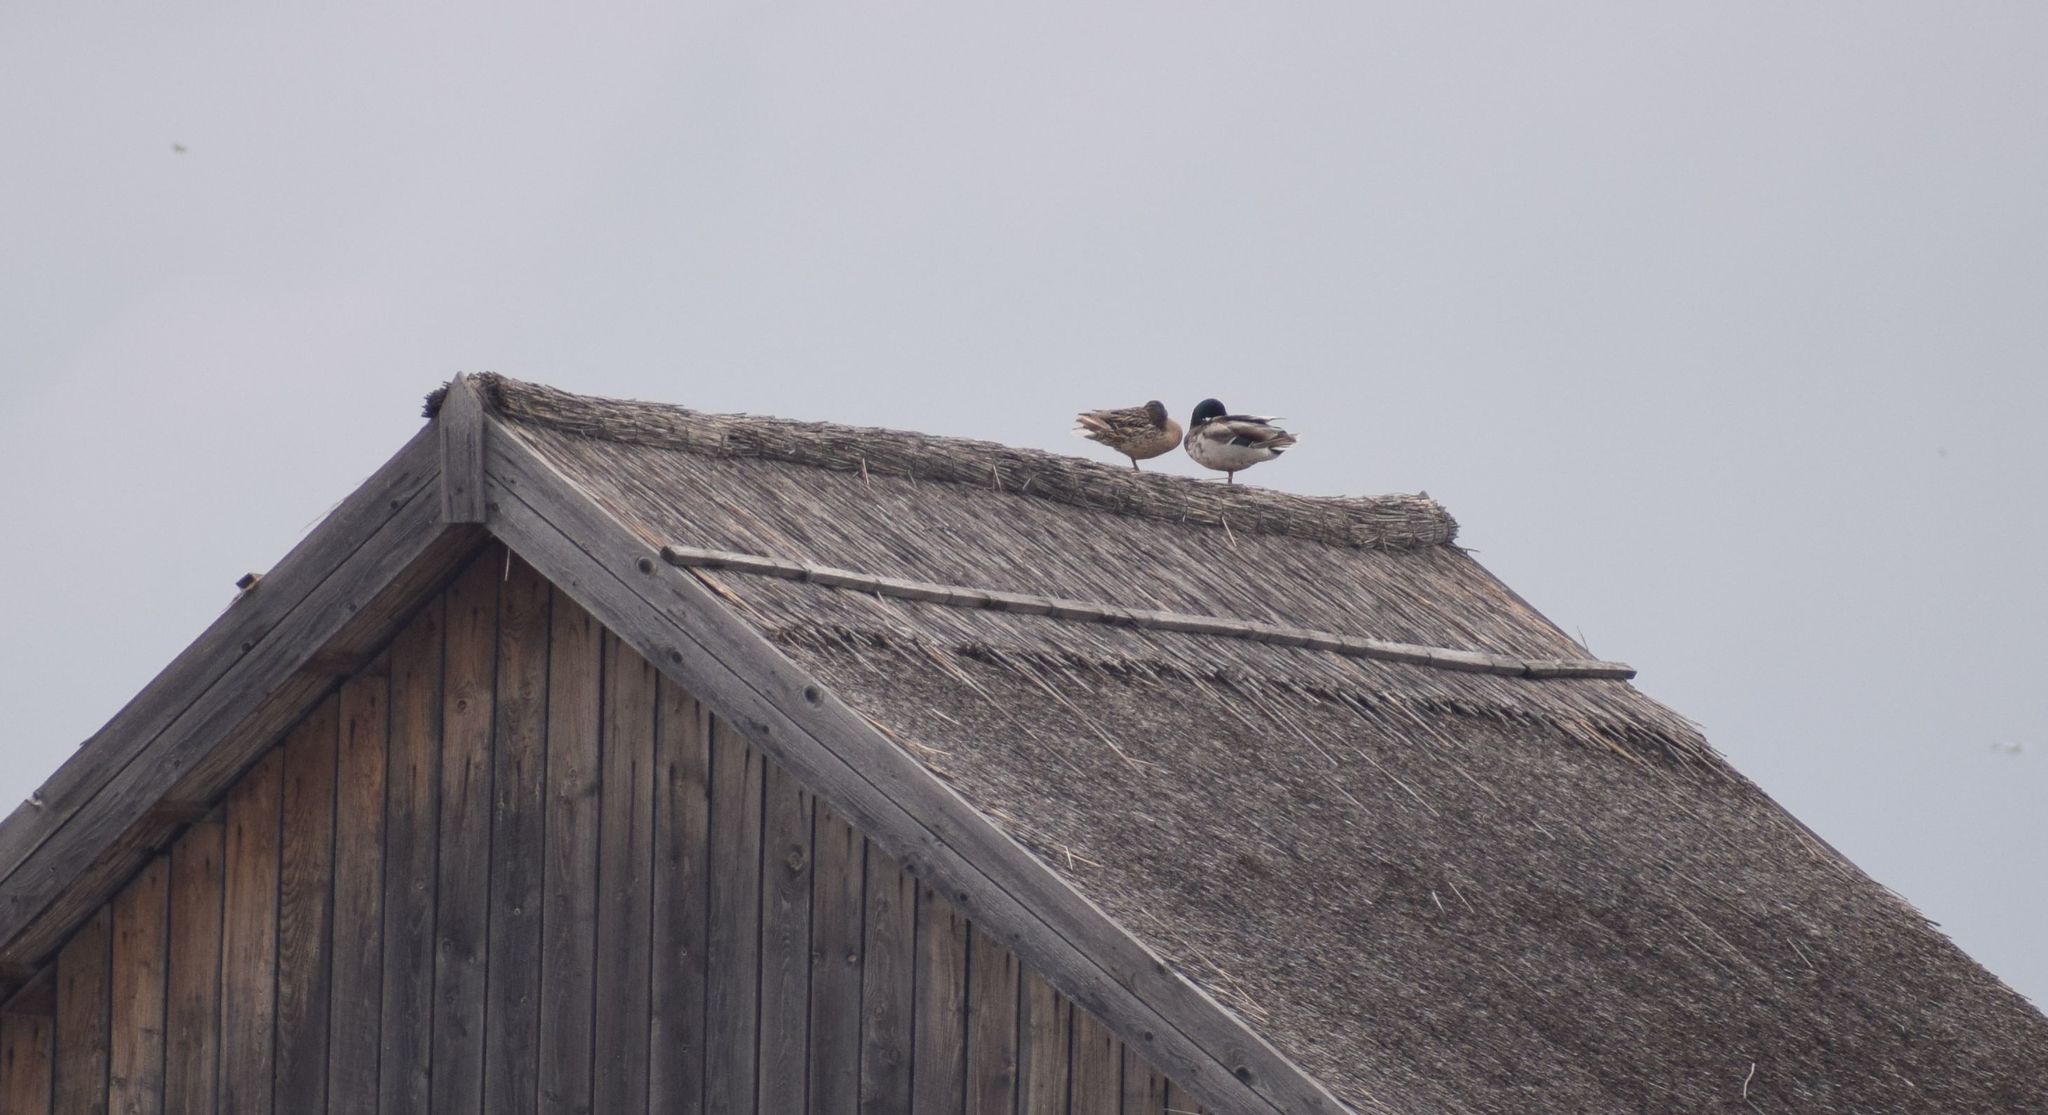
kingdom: Animalia
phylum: Chordata
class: Aves
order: Anseriformes
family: Anatidae
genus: Anas
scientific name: Anas platyrhynchos
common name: Mallard
